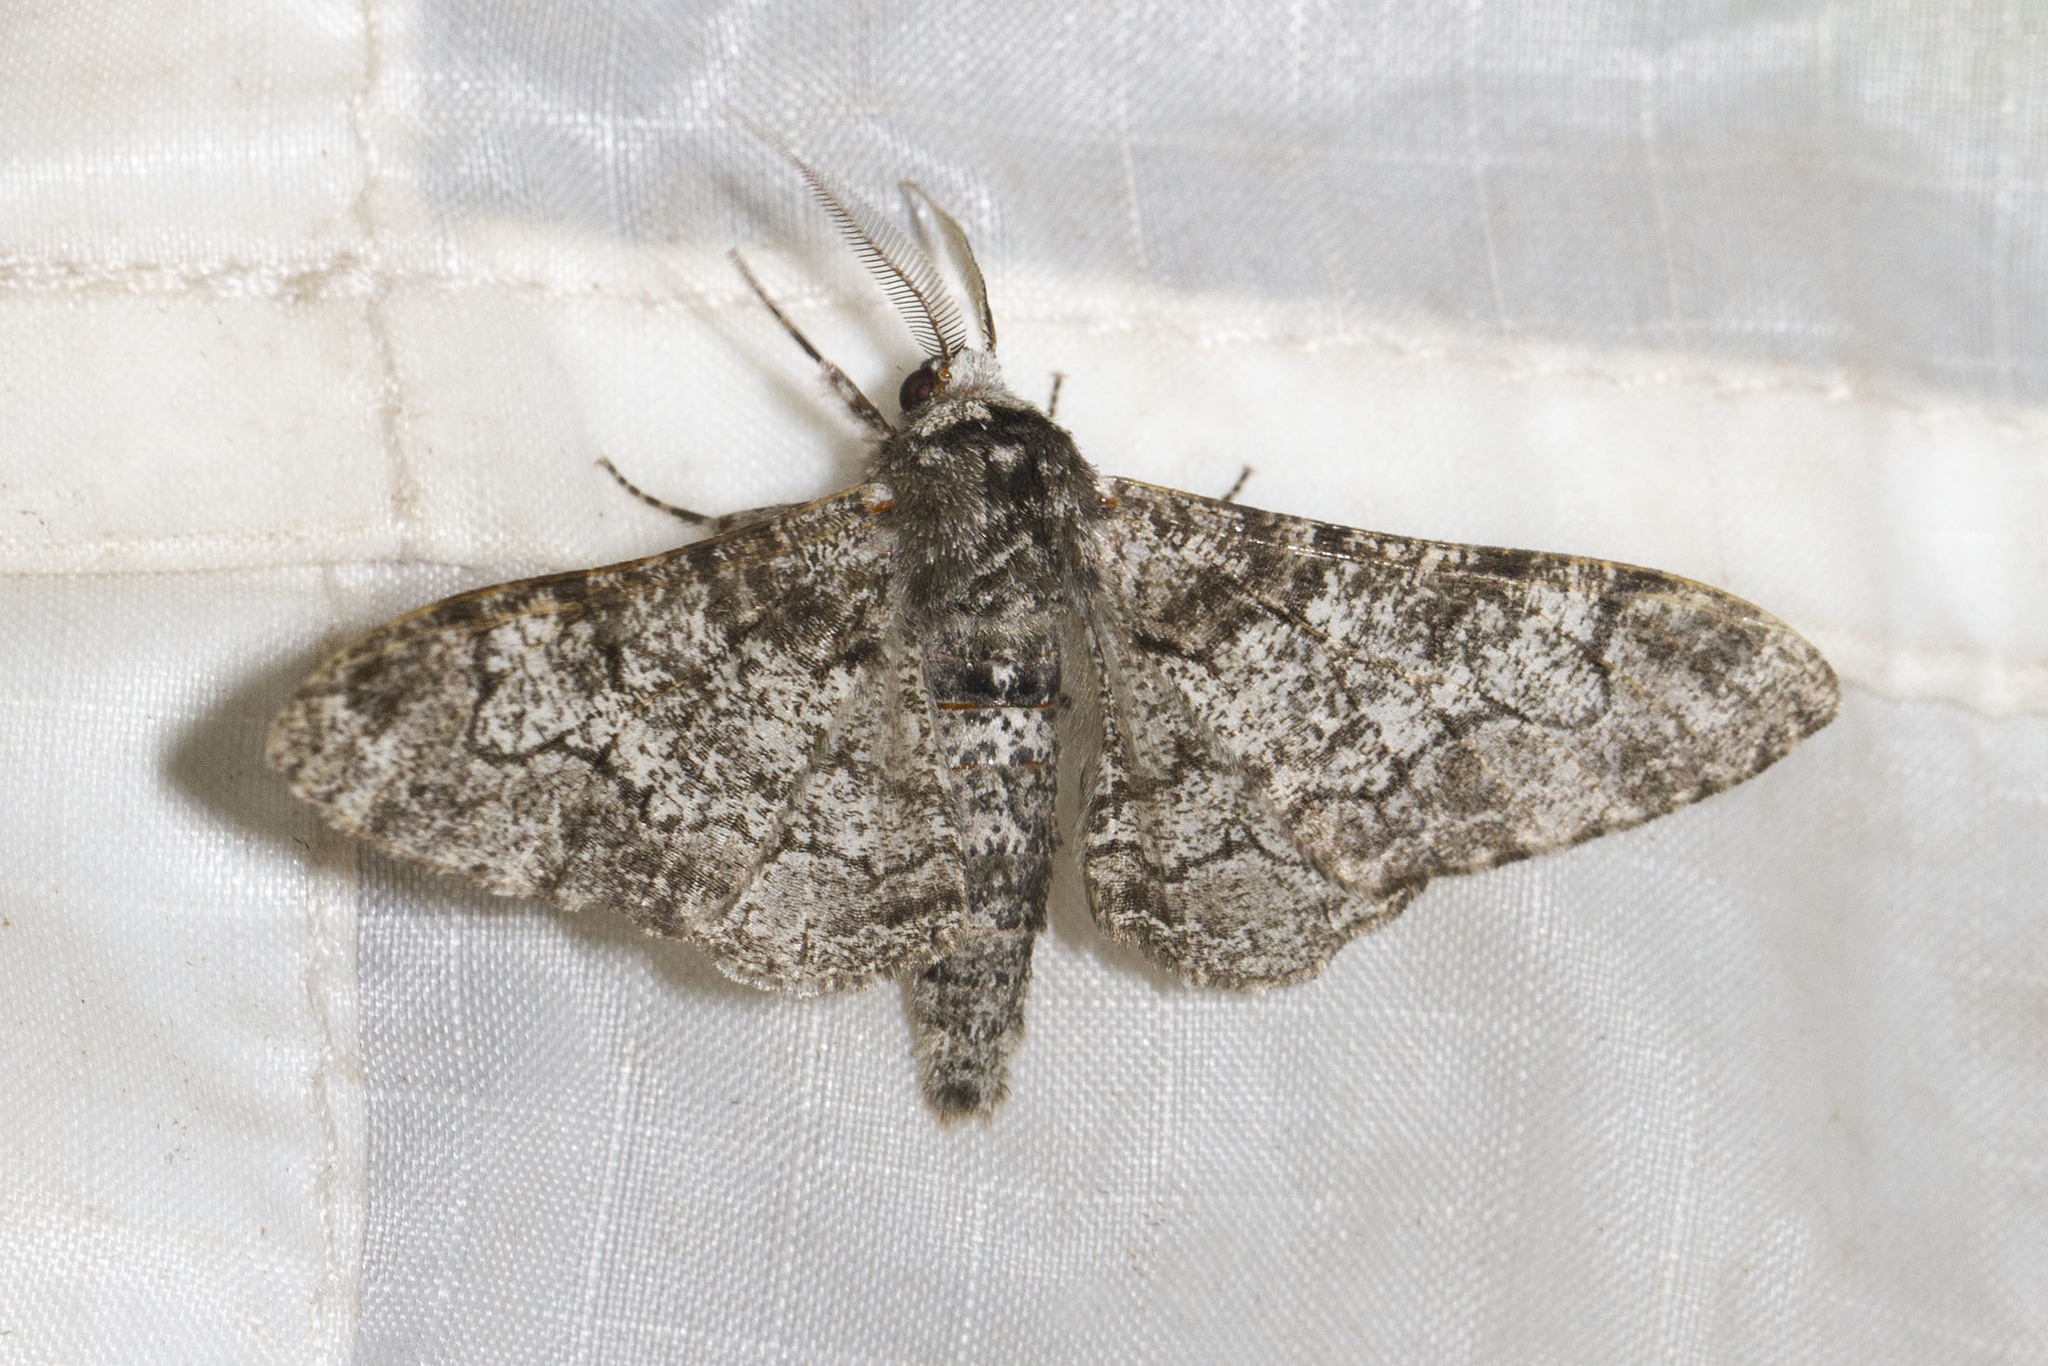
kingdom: Animalia
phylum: Arthropoda
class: Insecta
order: Lepidoptera
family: Geometridae
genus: Biston
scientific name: Biston betularia
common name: Peppered moth
